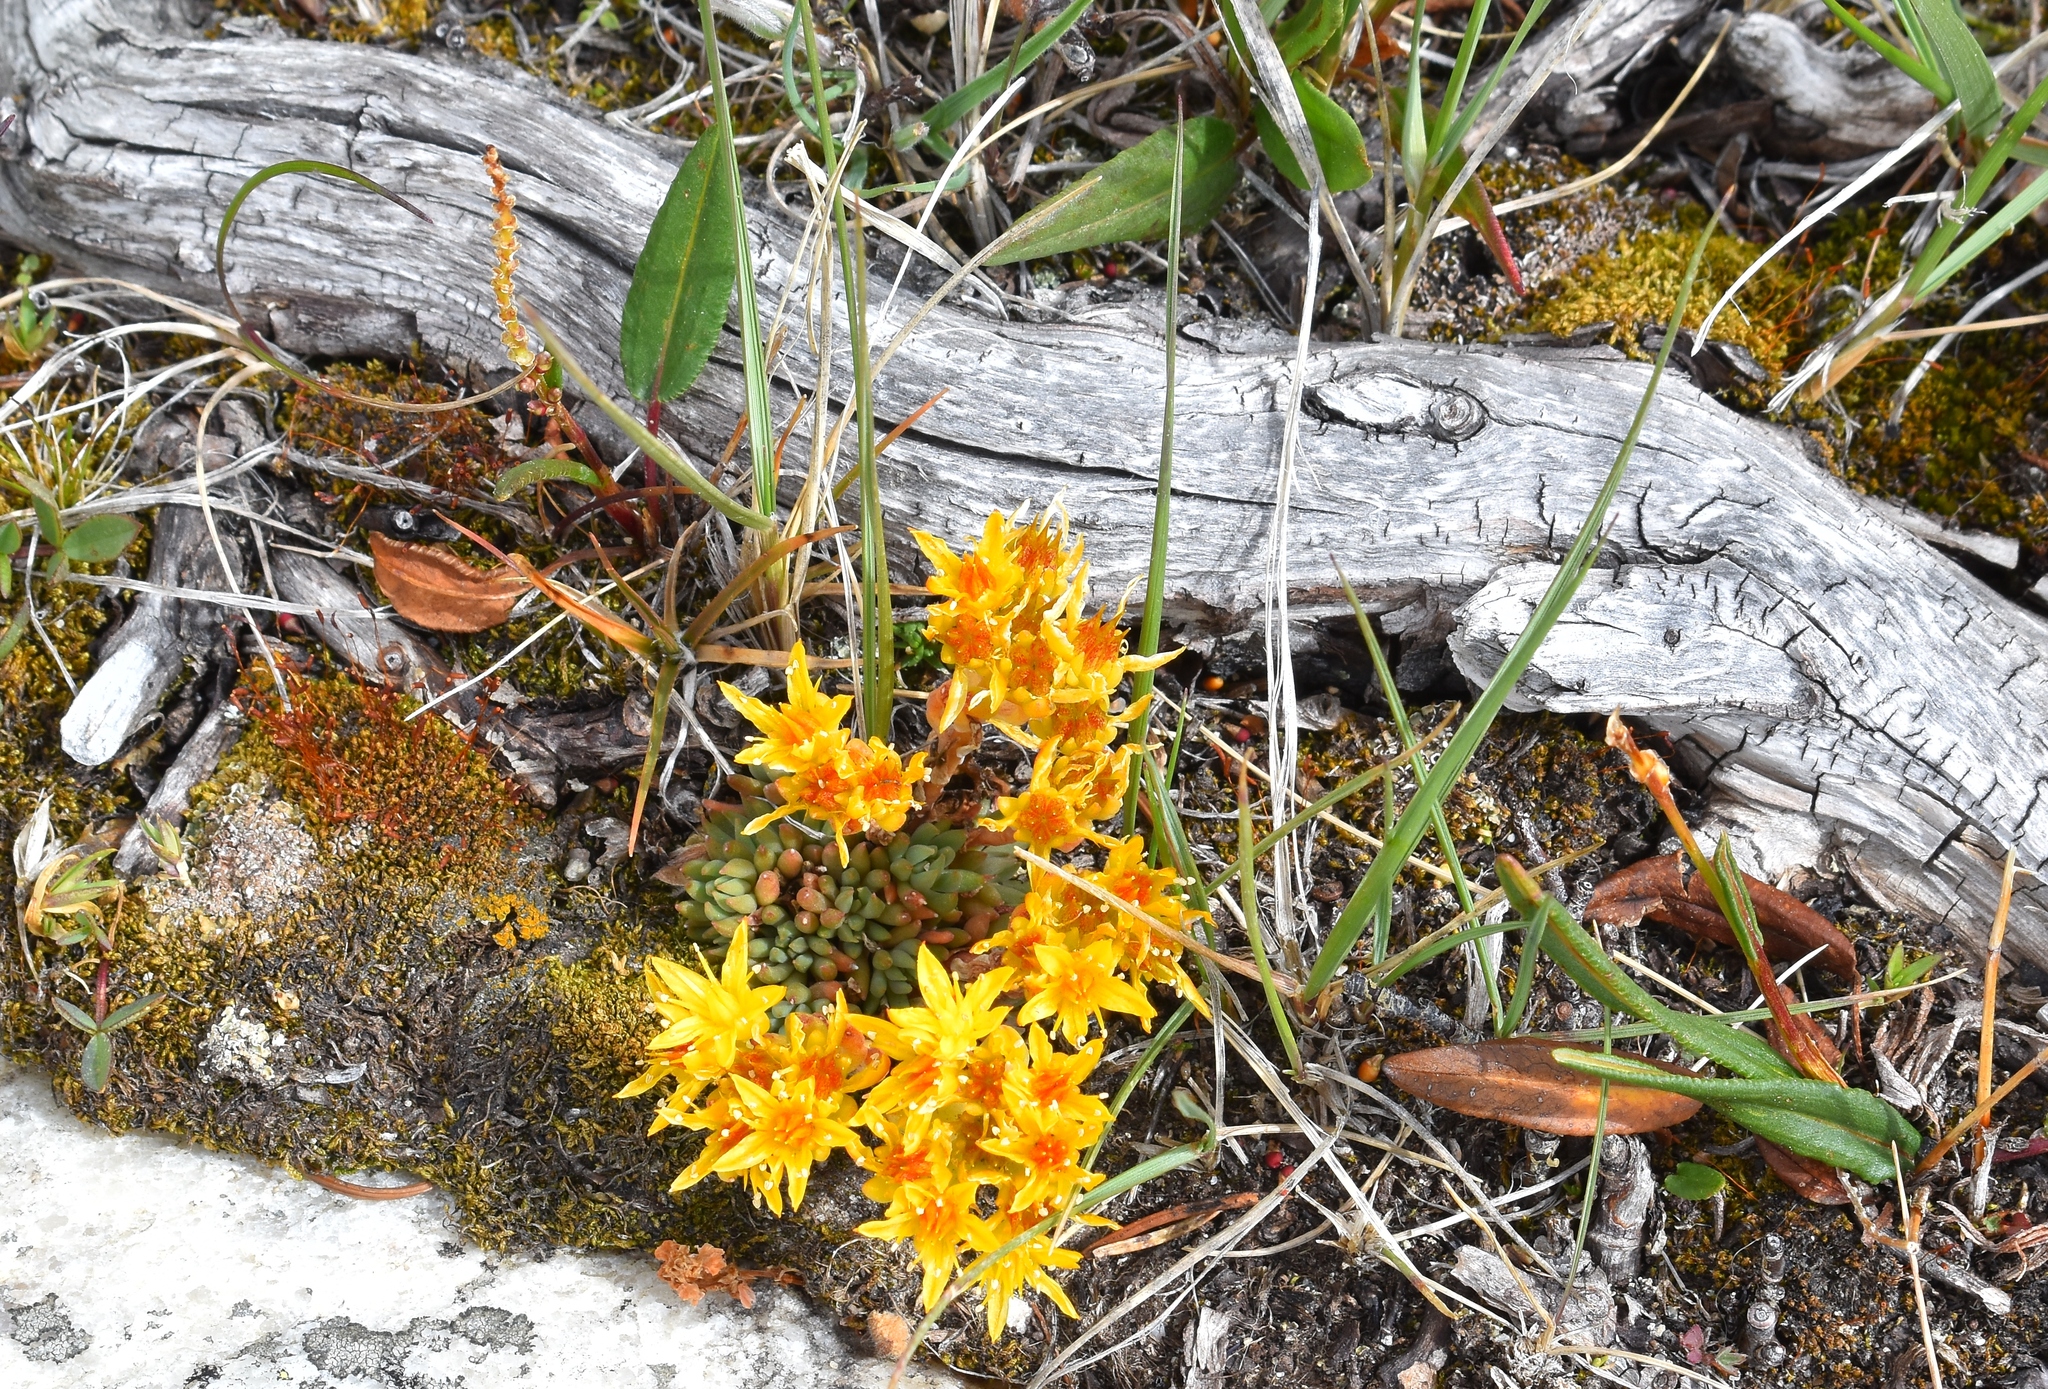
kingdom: Plantae
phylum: Tracheophyta
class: Magnoliopsida
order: Saxifragales
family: Crassulaceae
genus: Sedum
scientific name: Sedum lanceolatum
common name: Common stonecrop
